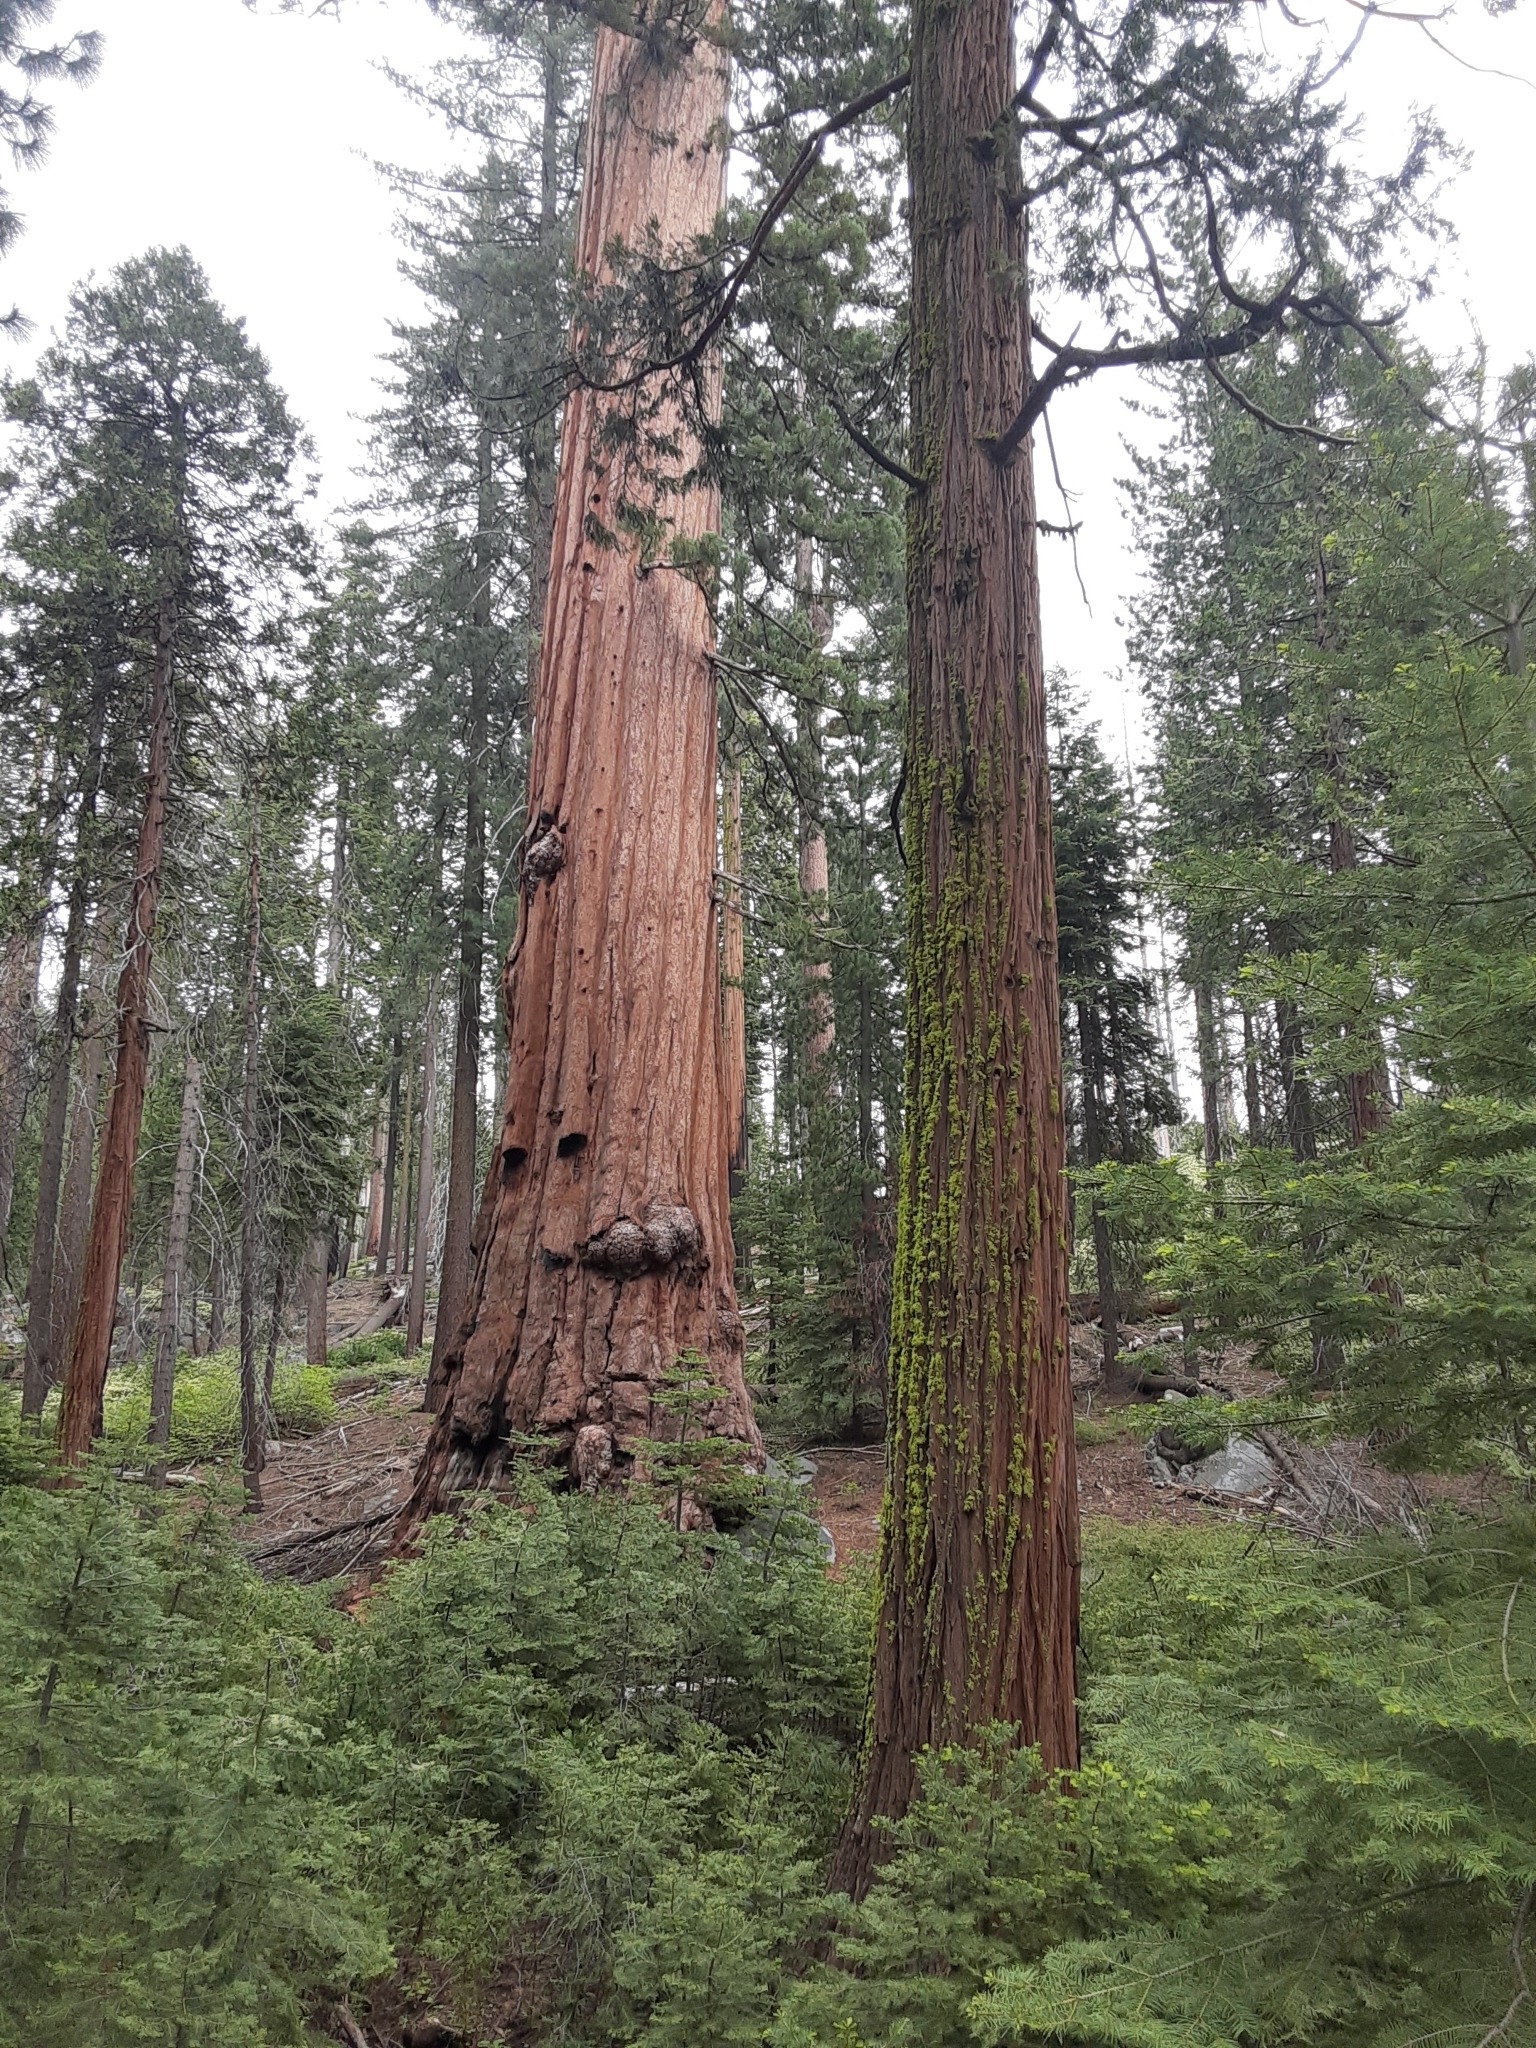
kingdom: Plantae
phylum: Tracheophyta
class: Pinopsida
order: Pinales
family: Cupressaceae
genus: Sequoiadendron
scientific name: Sequoiadendron giganteum
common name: Wellingtonia
